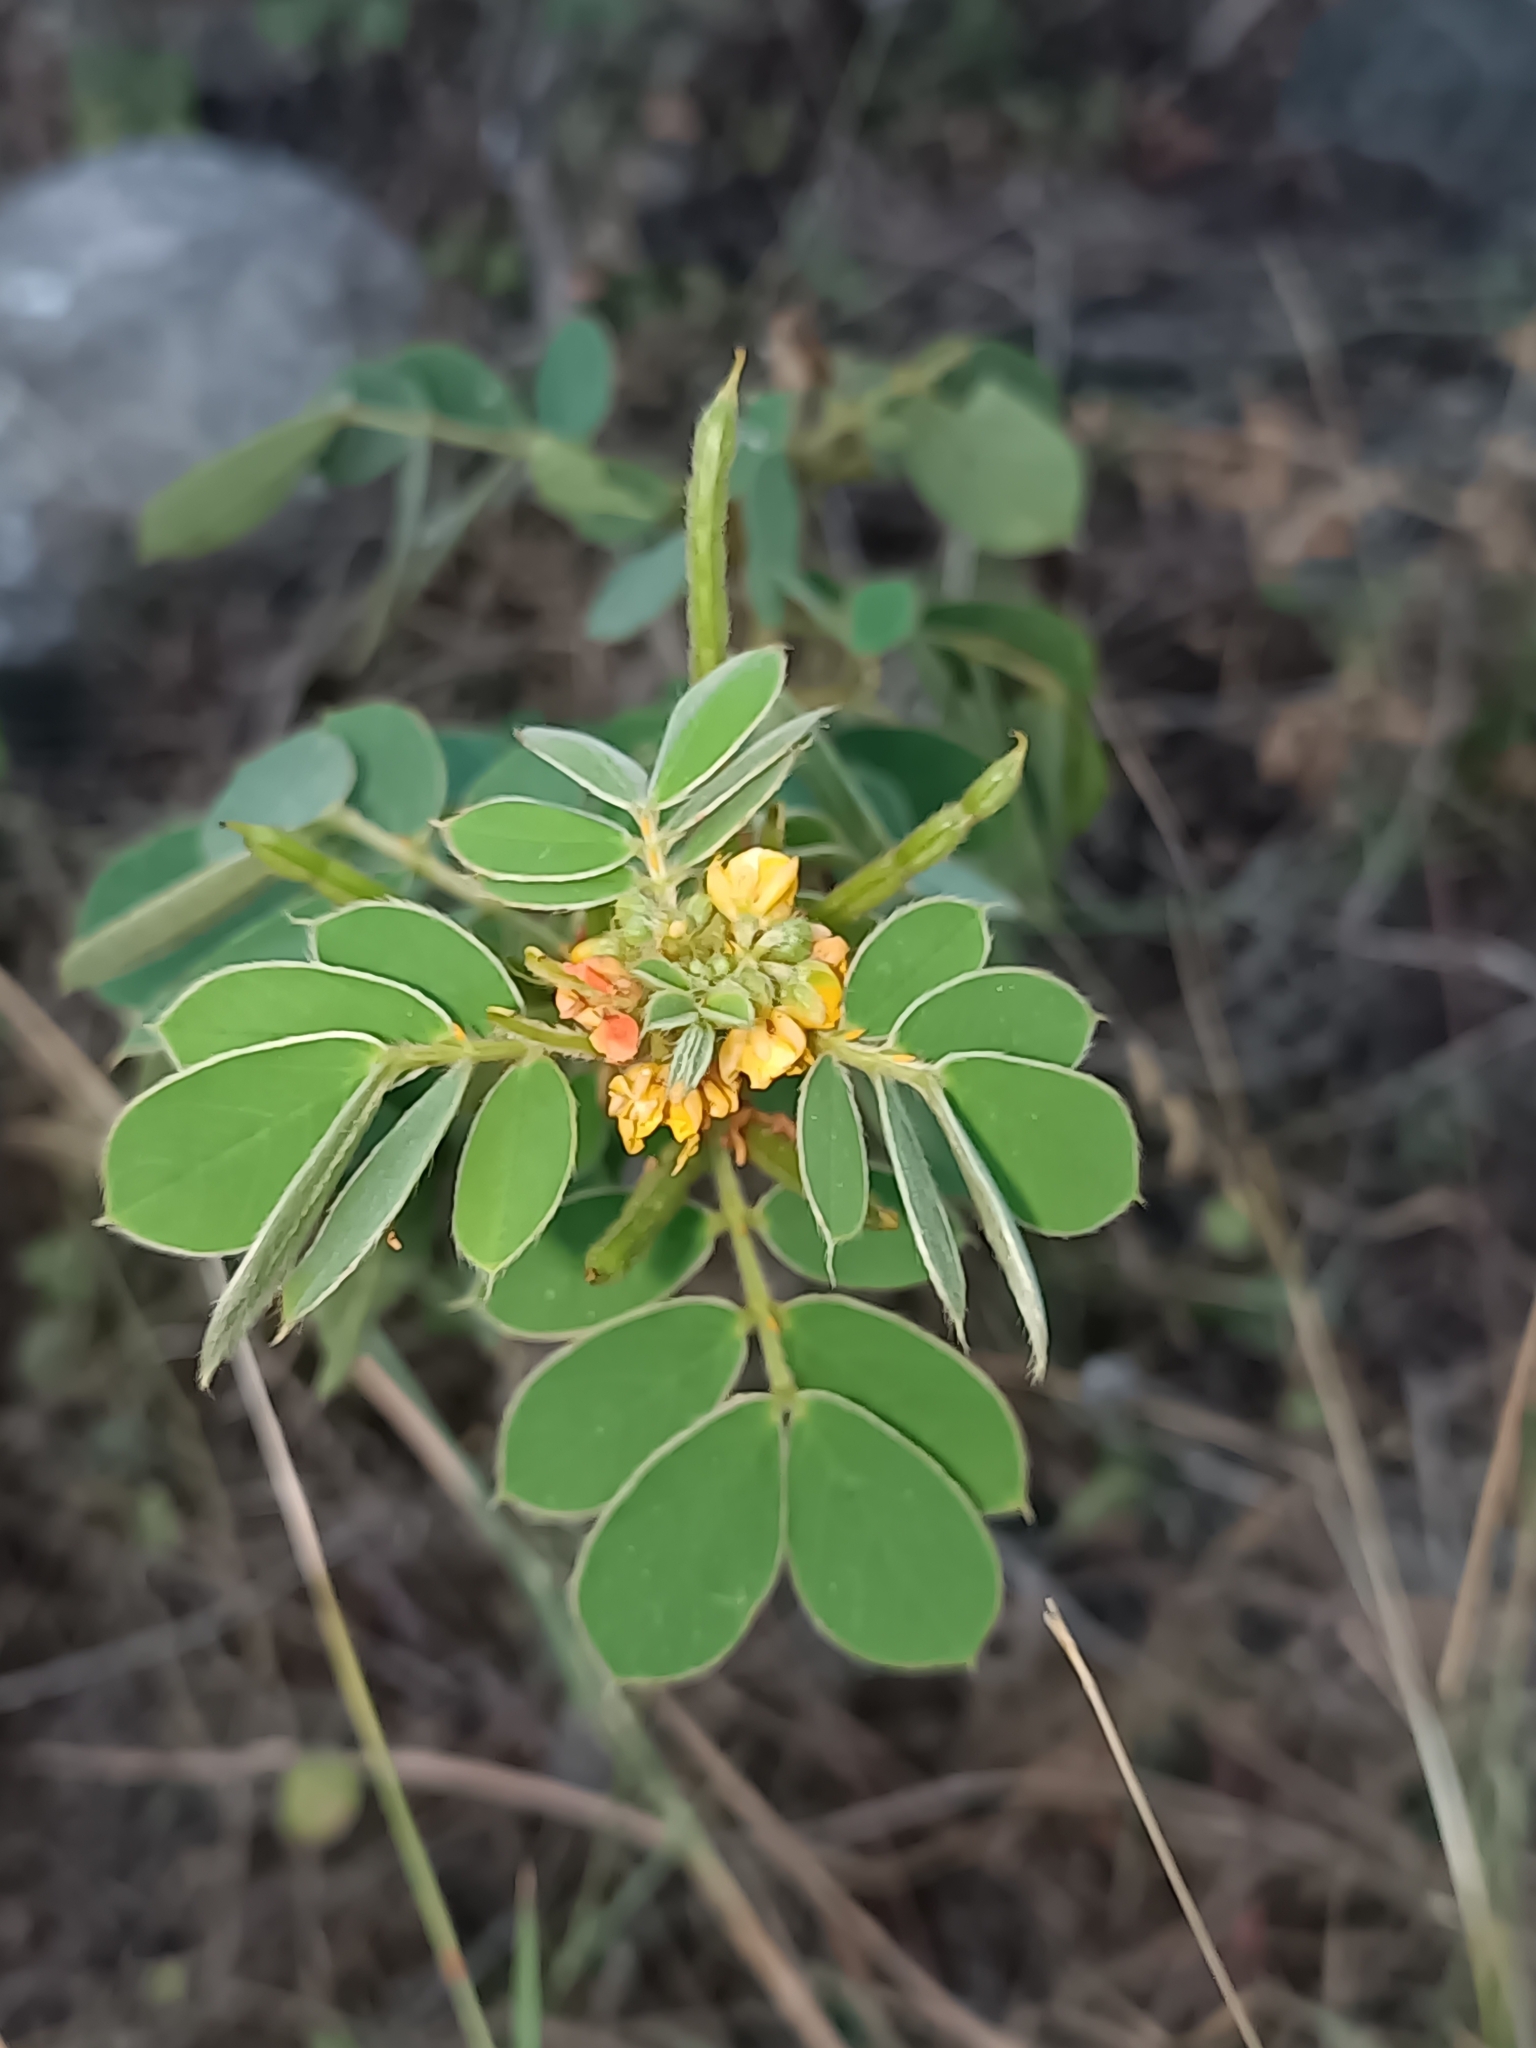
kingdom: Plantae
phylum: Tracheophyta
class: Magnoliopsida
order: Fabales
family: Fabaceae
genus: Senna
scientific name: Senna uniflora
